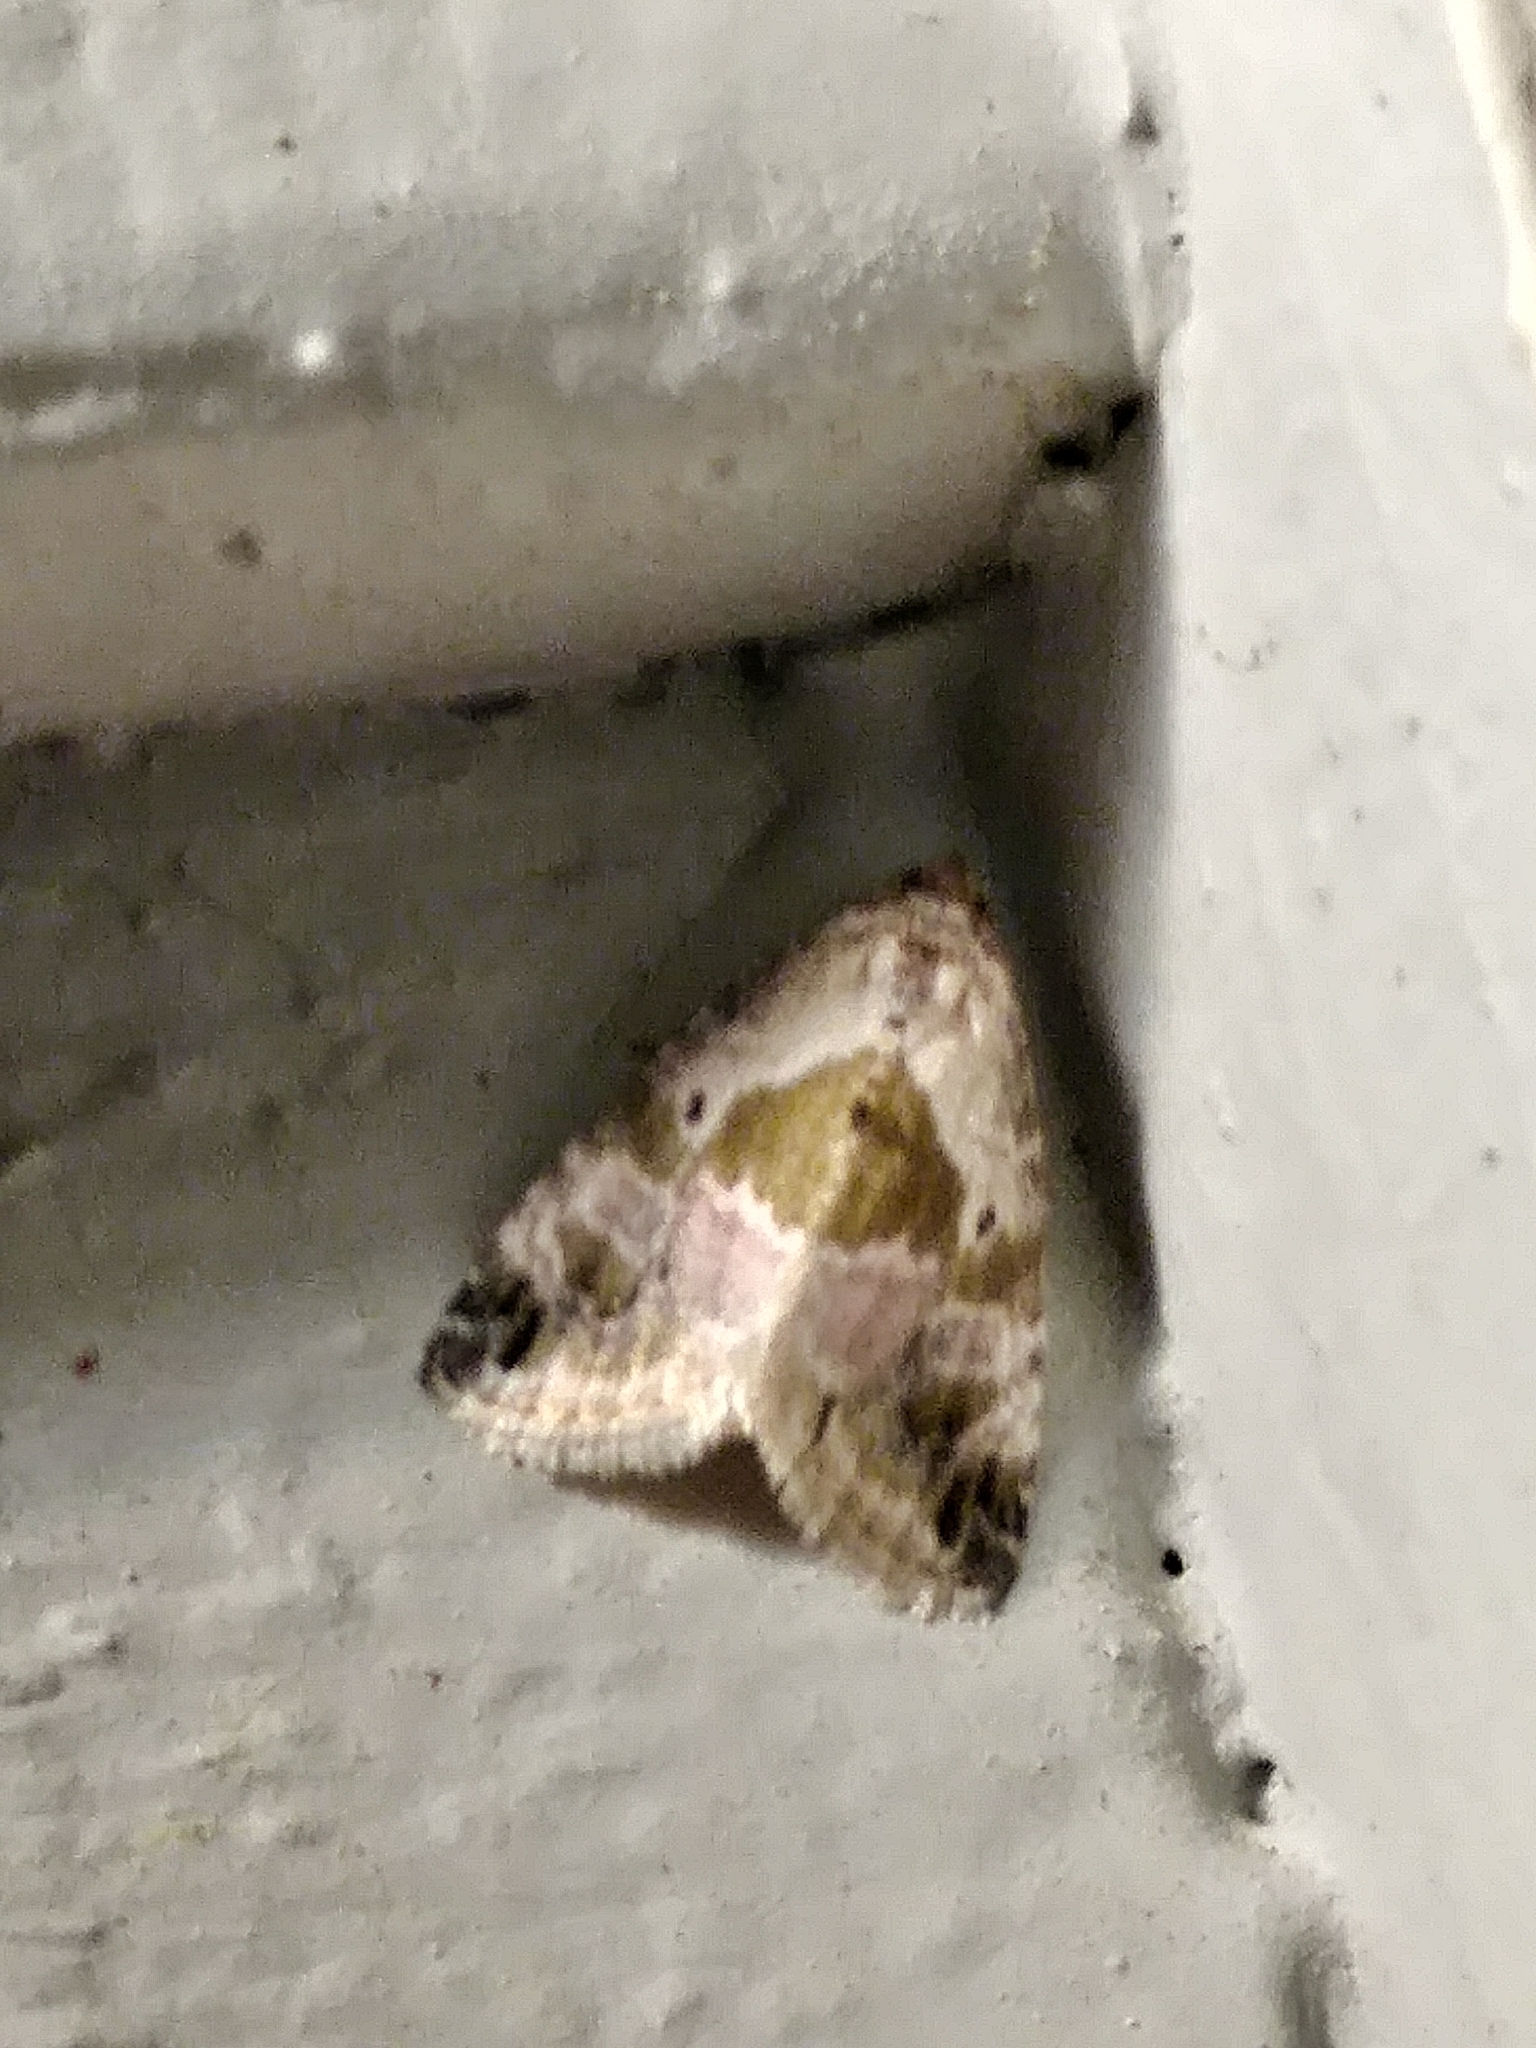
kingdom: Animalia
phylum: Arthropoda
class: Insecta
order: Lepidoptera
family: Noctuidae
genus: Maliattha
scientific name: Maliattha synochitis
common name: Black-dotted glyph
